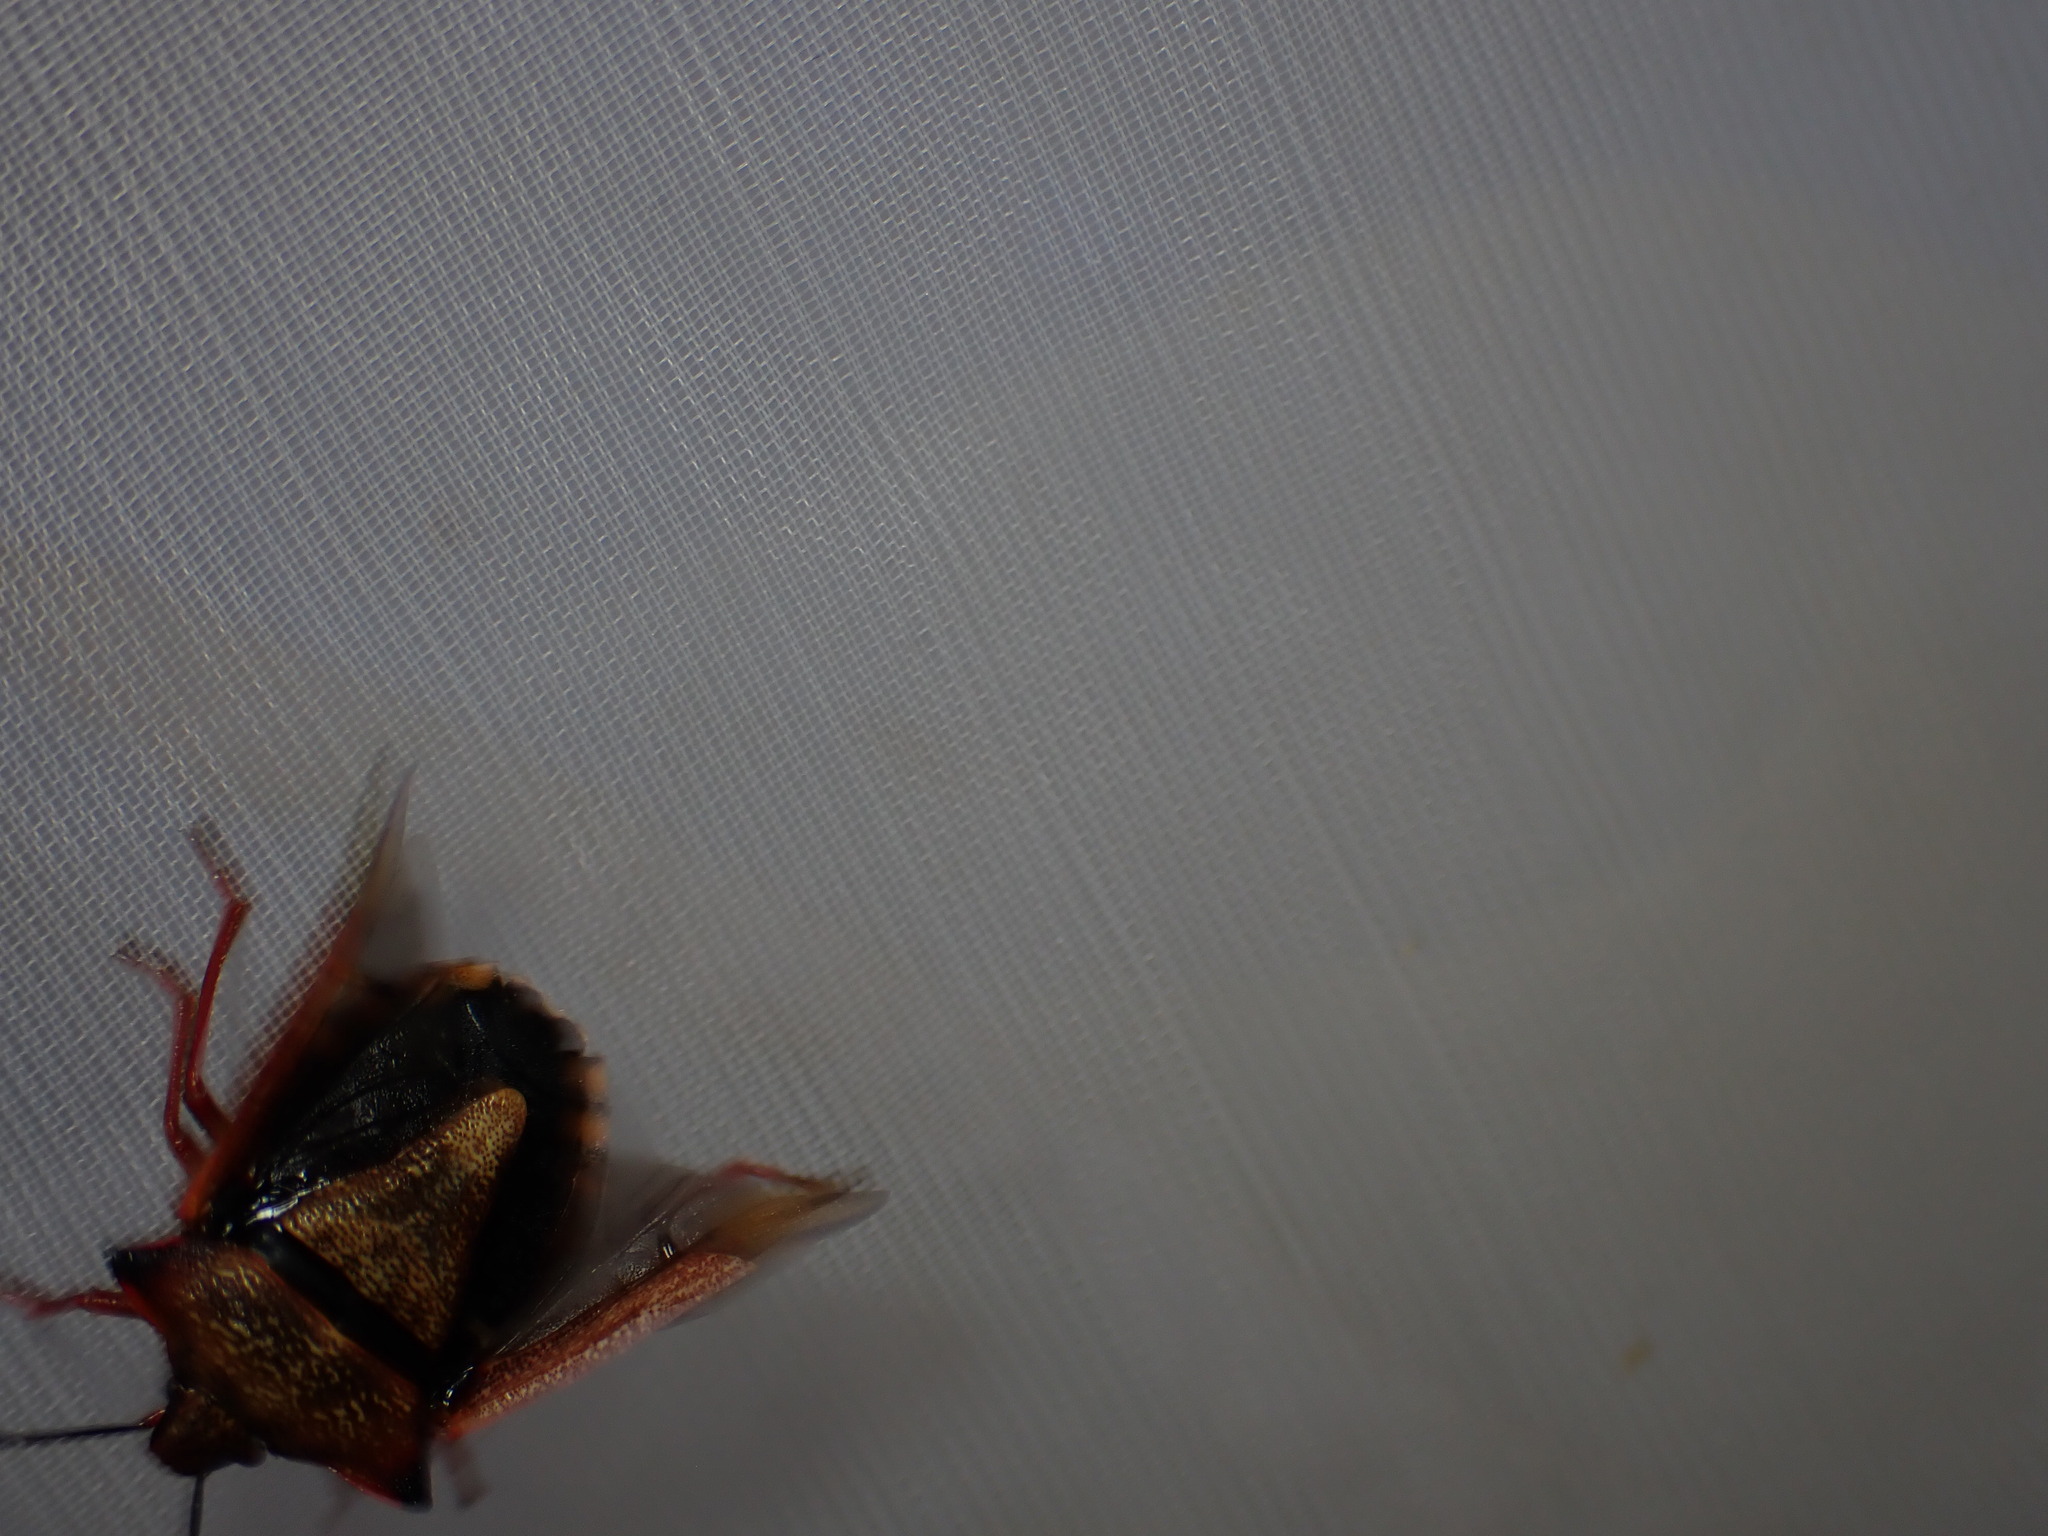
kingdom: Animalia
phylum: Arthropoda
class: Insecta
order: Hemiptera
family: Pentatomidae
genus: Carpocoris
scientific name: Carpocoris mediterraneus
